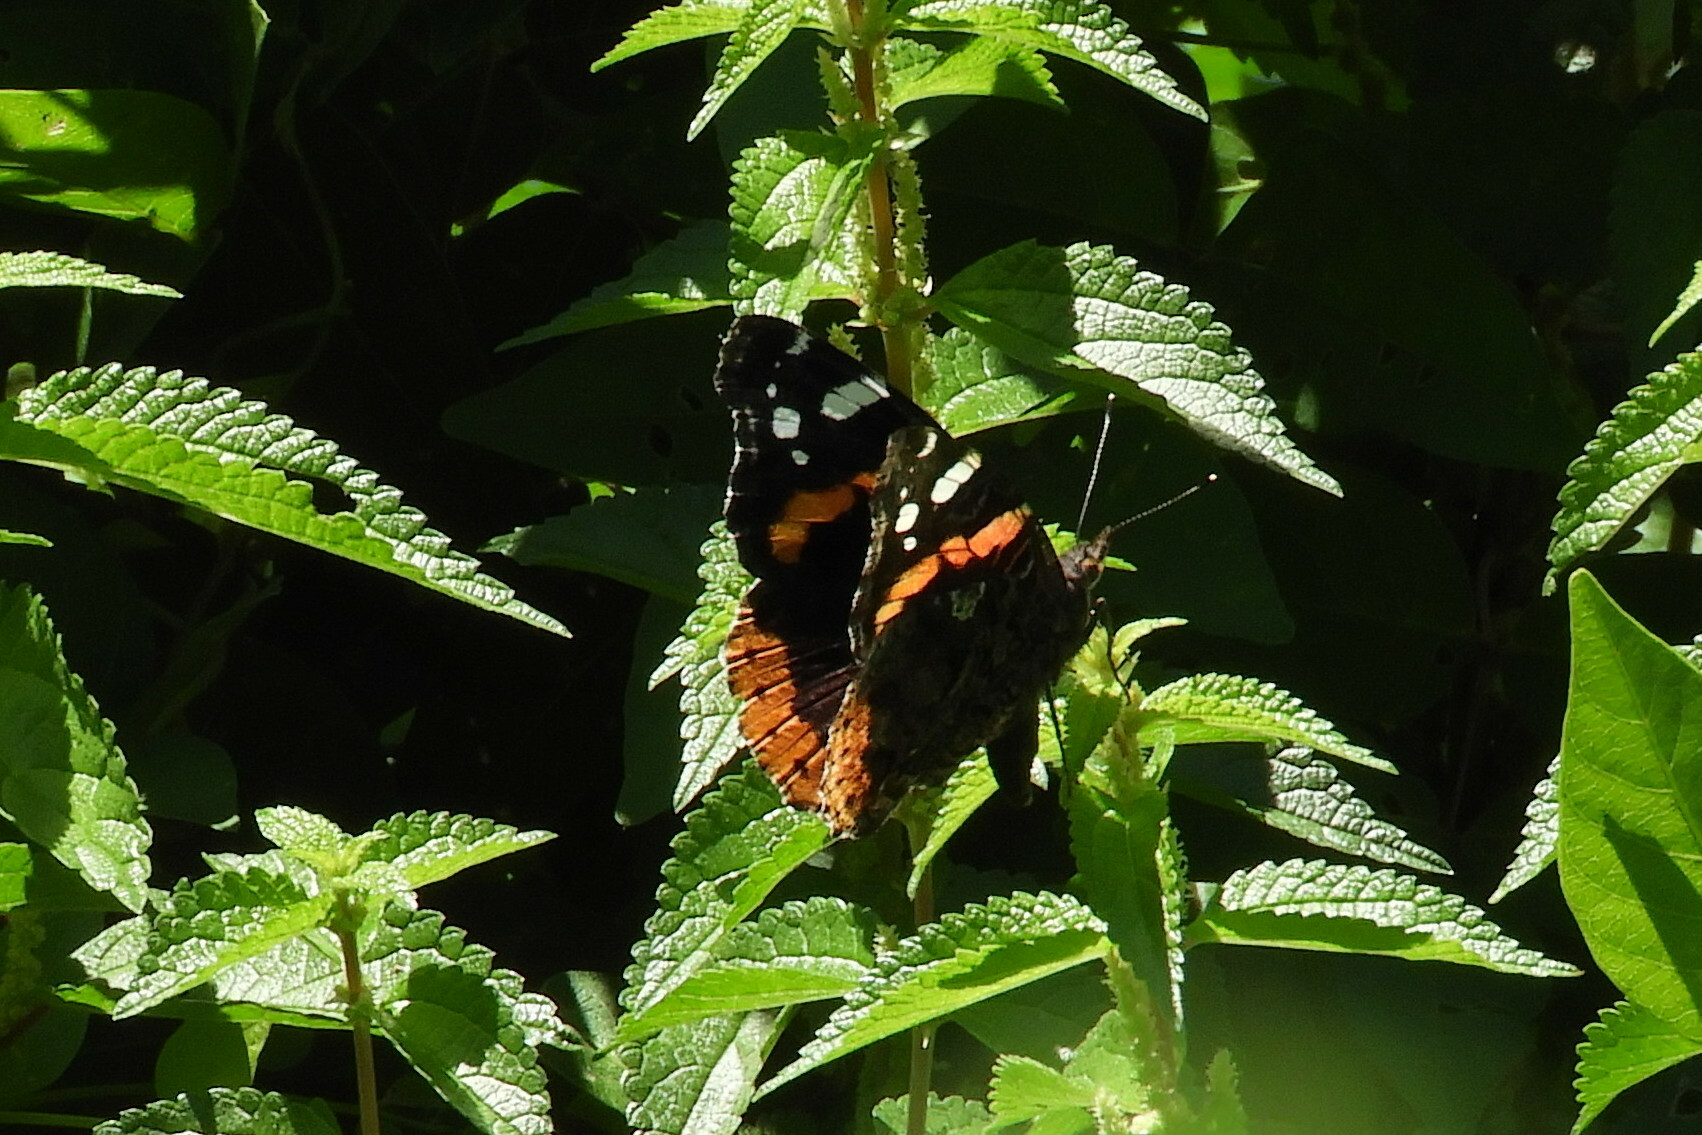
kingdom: Animalia
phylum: Arthropoda
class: Insecta
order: Lepidoptera
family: Nymphalidae
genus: Vanessa
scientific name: Vanessa atalanta
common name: Red admiral
